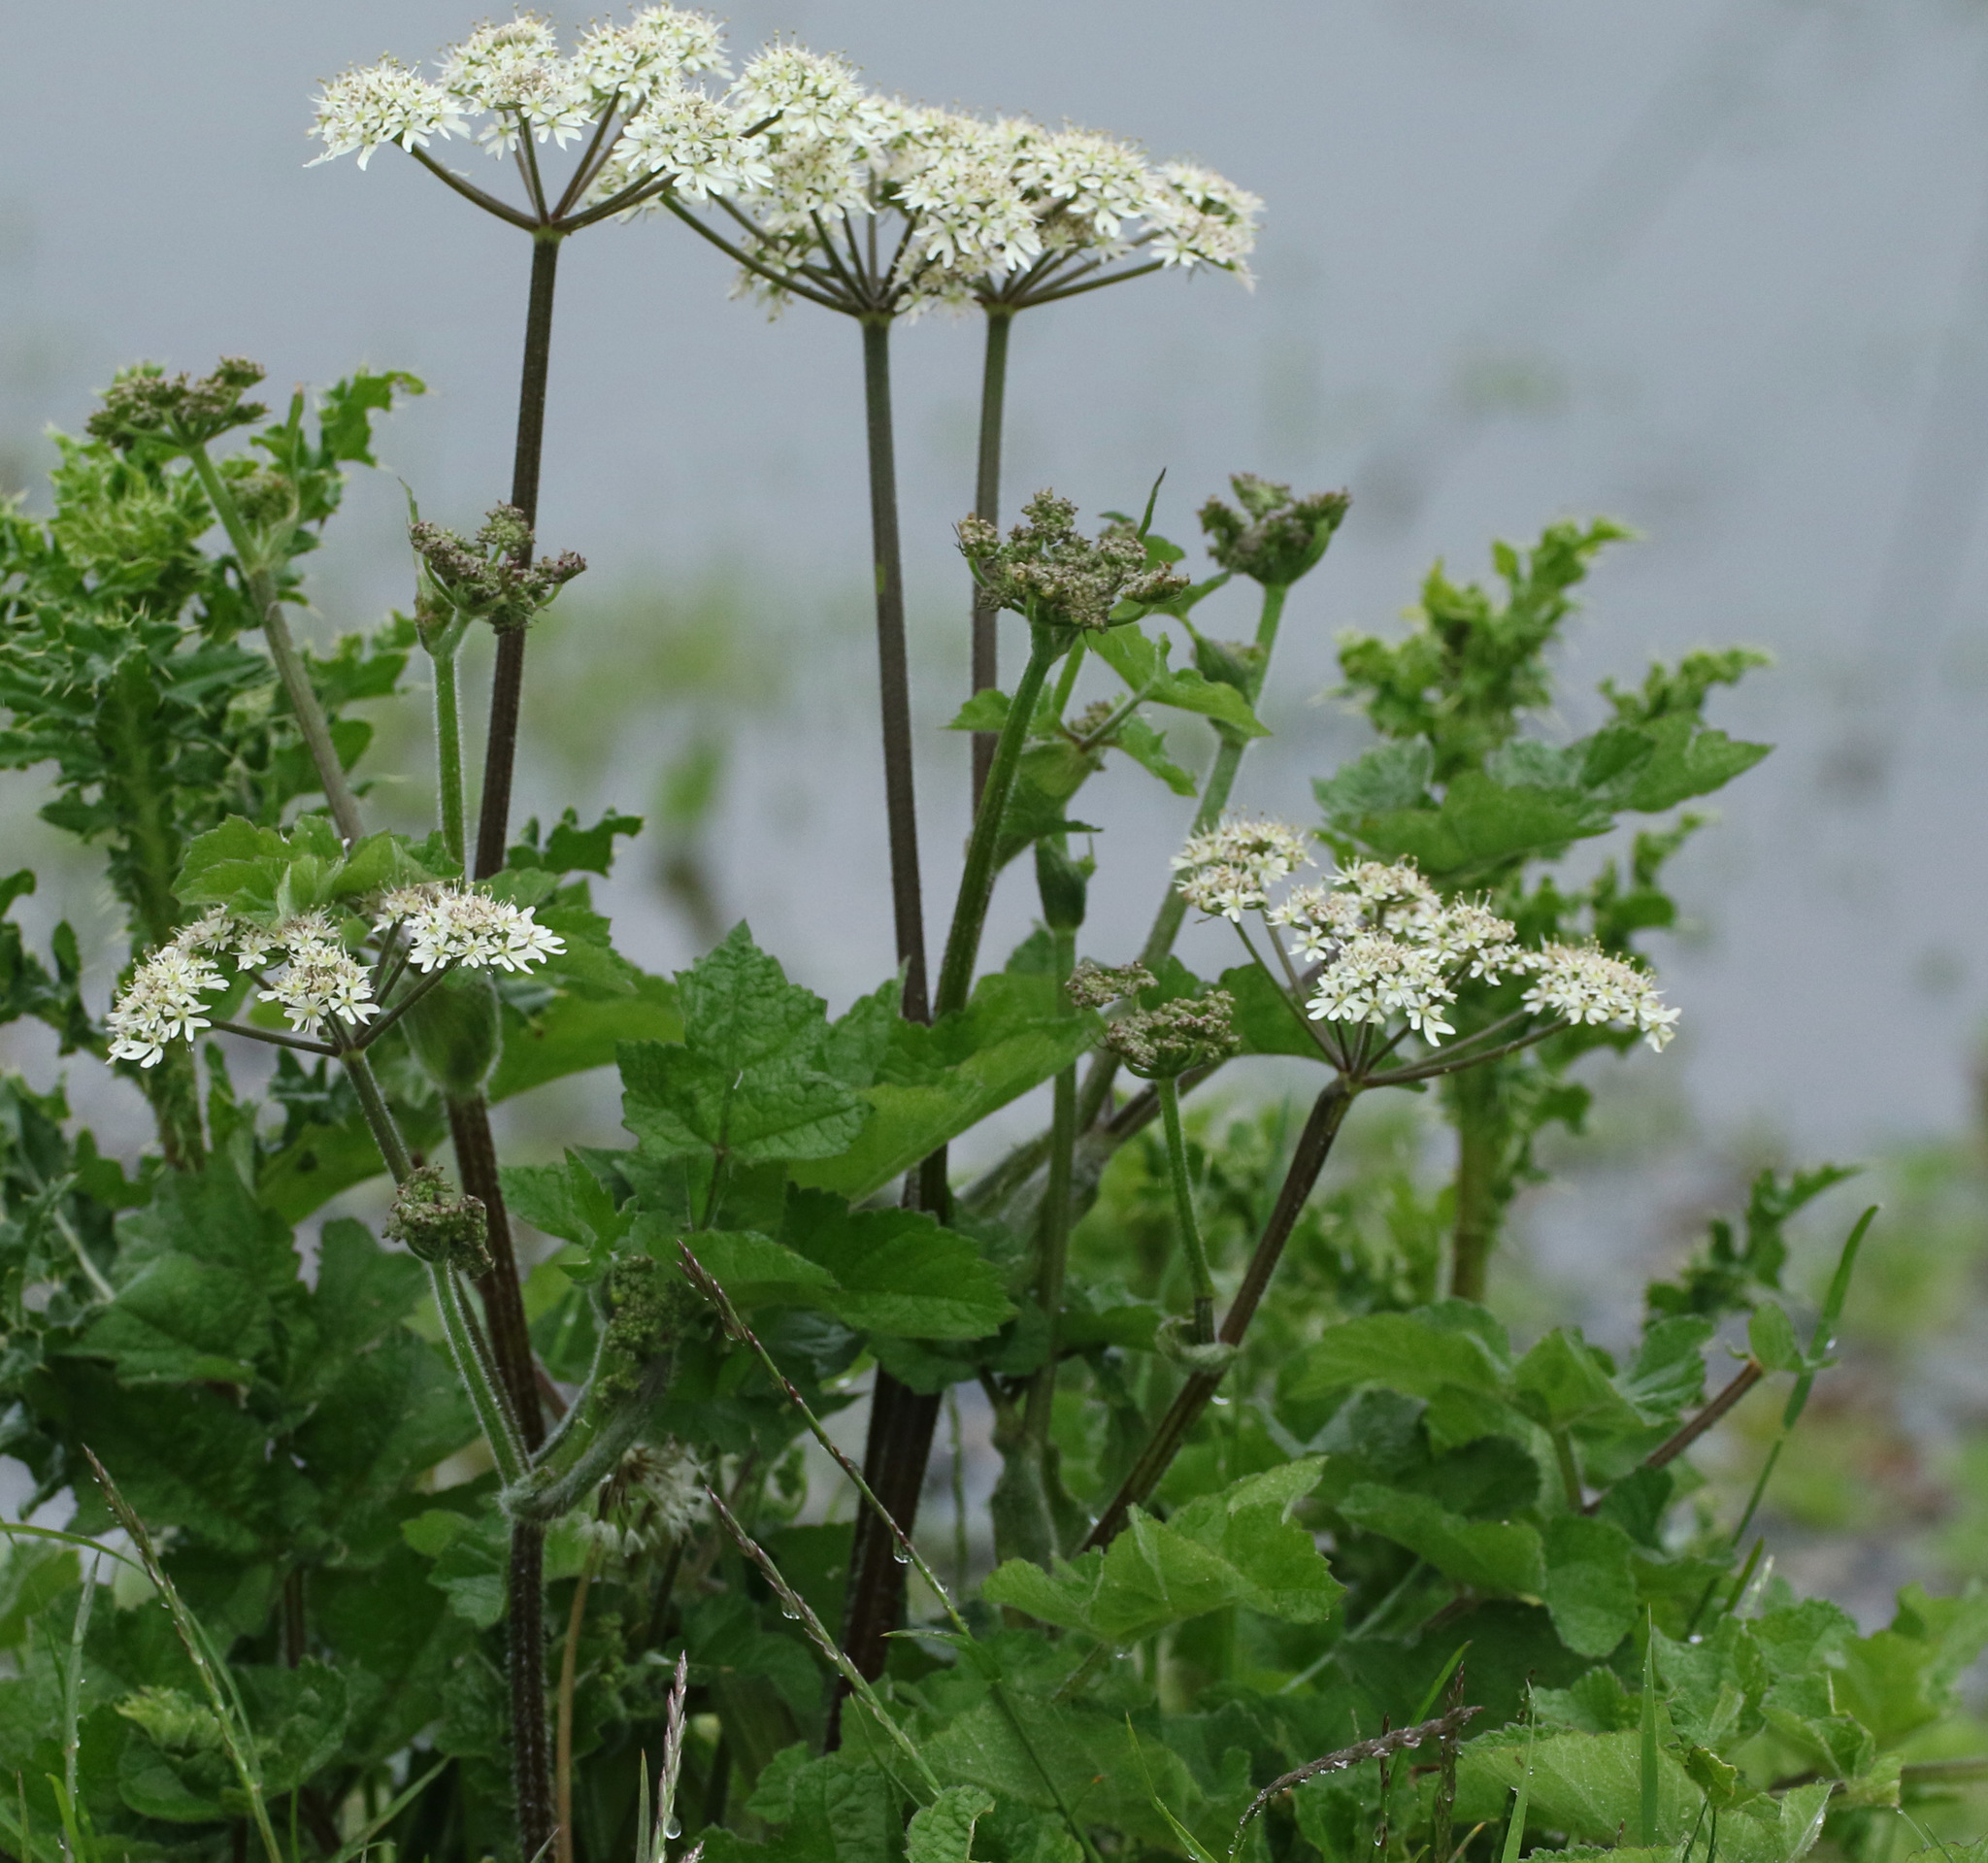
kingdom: Plantae
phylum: Tracheophyta
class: Magnoliopsida
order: Apiales
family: Apiaceae
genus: Heracleum
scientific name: Heracleum sphondylium
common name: Hogweed
